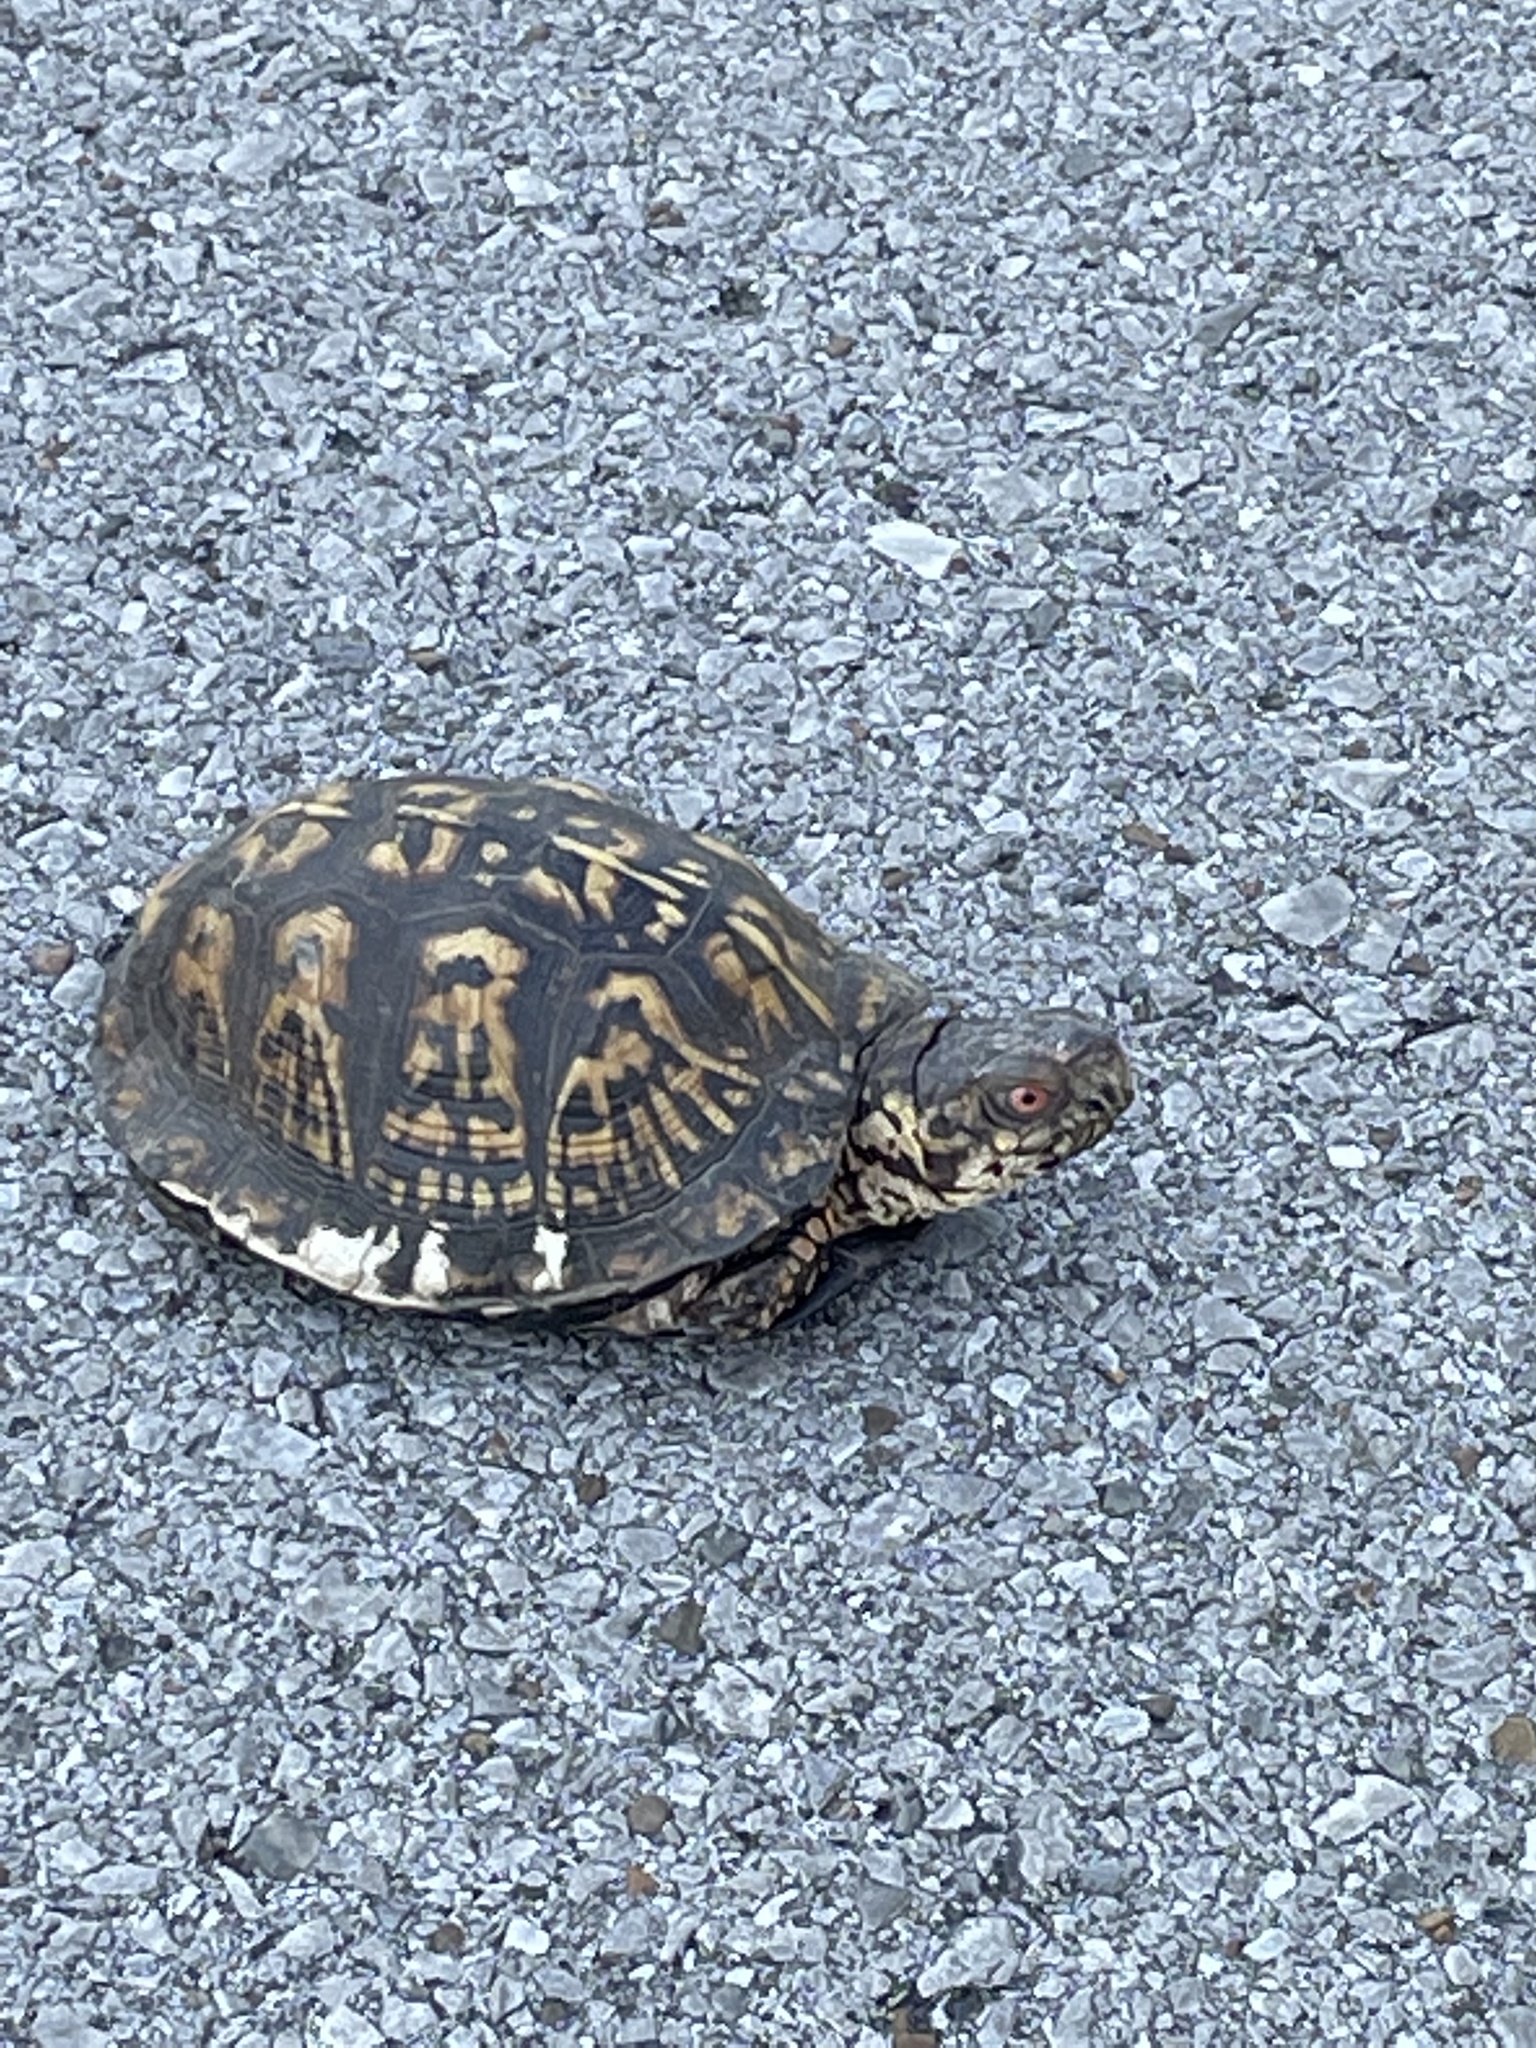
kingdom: Animalia
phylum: Chordata
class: Testudines
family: Emydidae
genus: Terrapene
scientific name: Terrapene carolina
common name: Common box turtle
